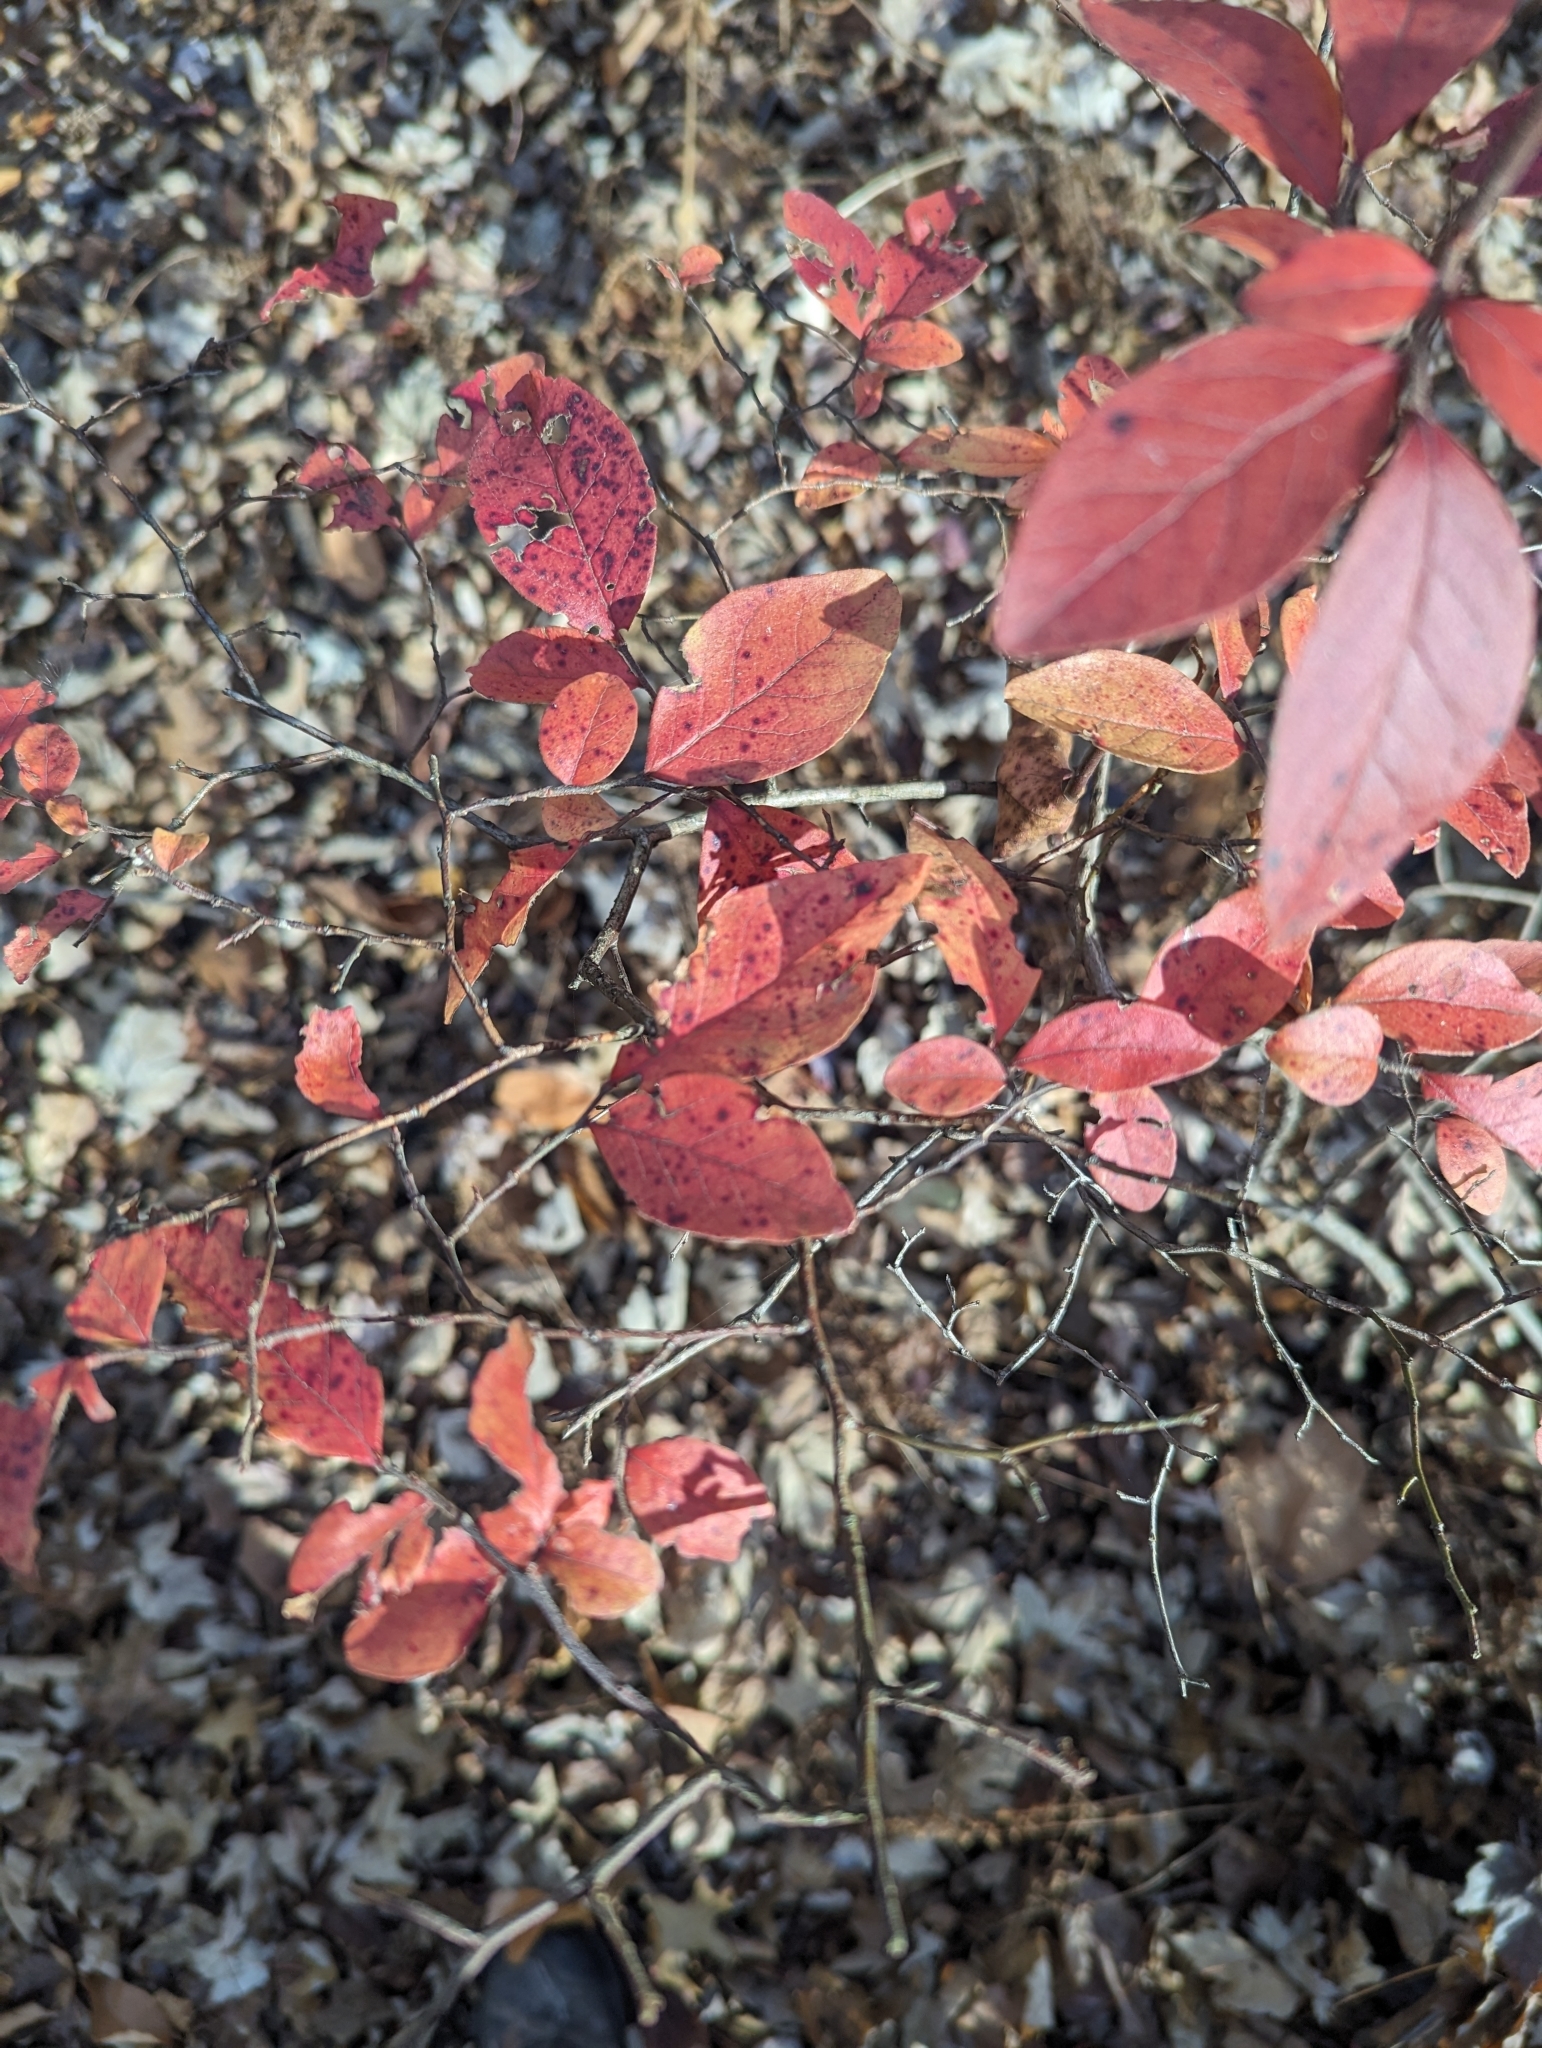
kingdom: Plantae
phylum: Tracheophyta
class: Magnoliopsida
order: Ericales
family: Ericaceae
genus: Vaccinium
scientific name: Vaccinium corymbosum
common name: Blueberry
